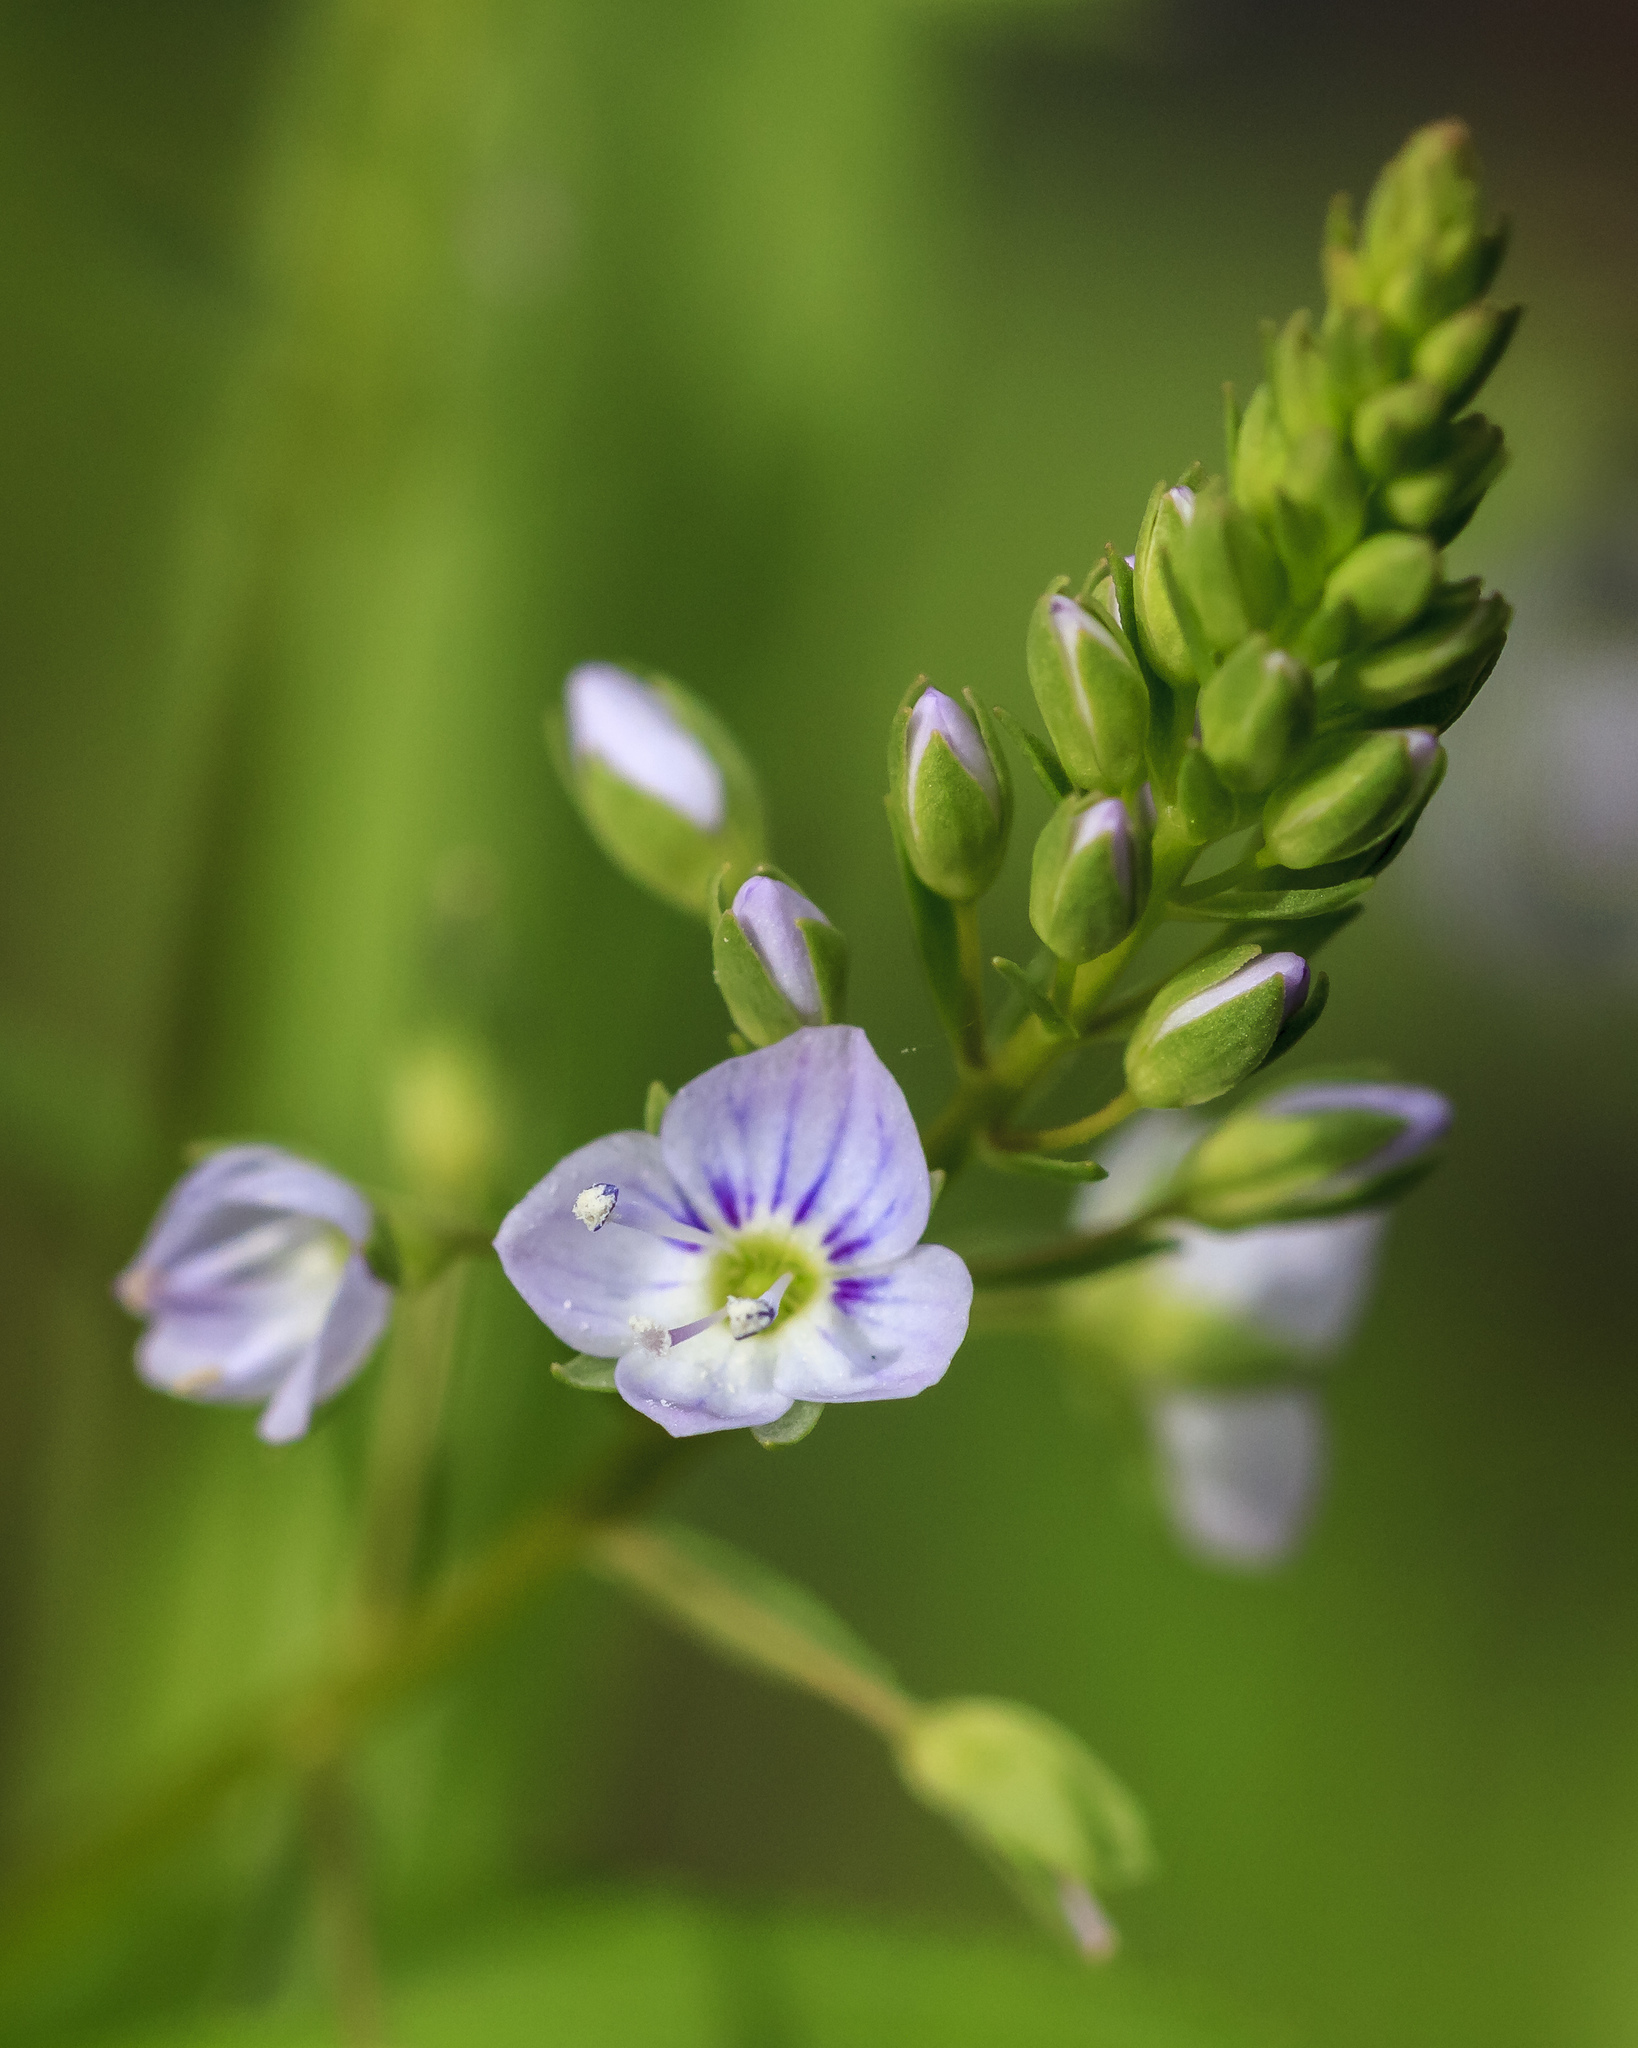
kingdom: Plantae
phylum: Tracheophyta
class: Magnoliopsida
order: Lamiales
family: Plantaginaceae
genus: Veronica
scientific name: Veronica anagallis-aquatica
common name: Water speedwell
